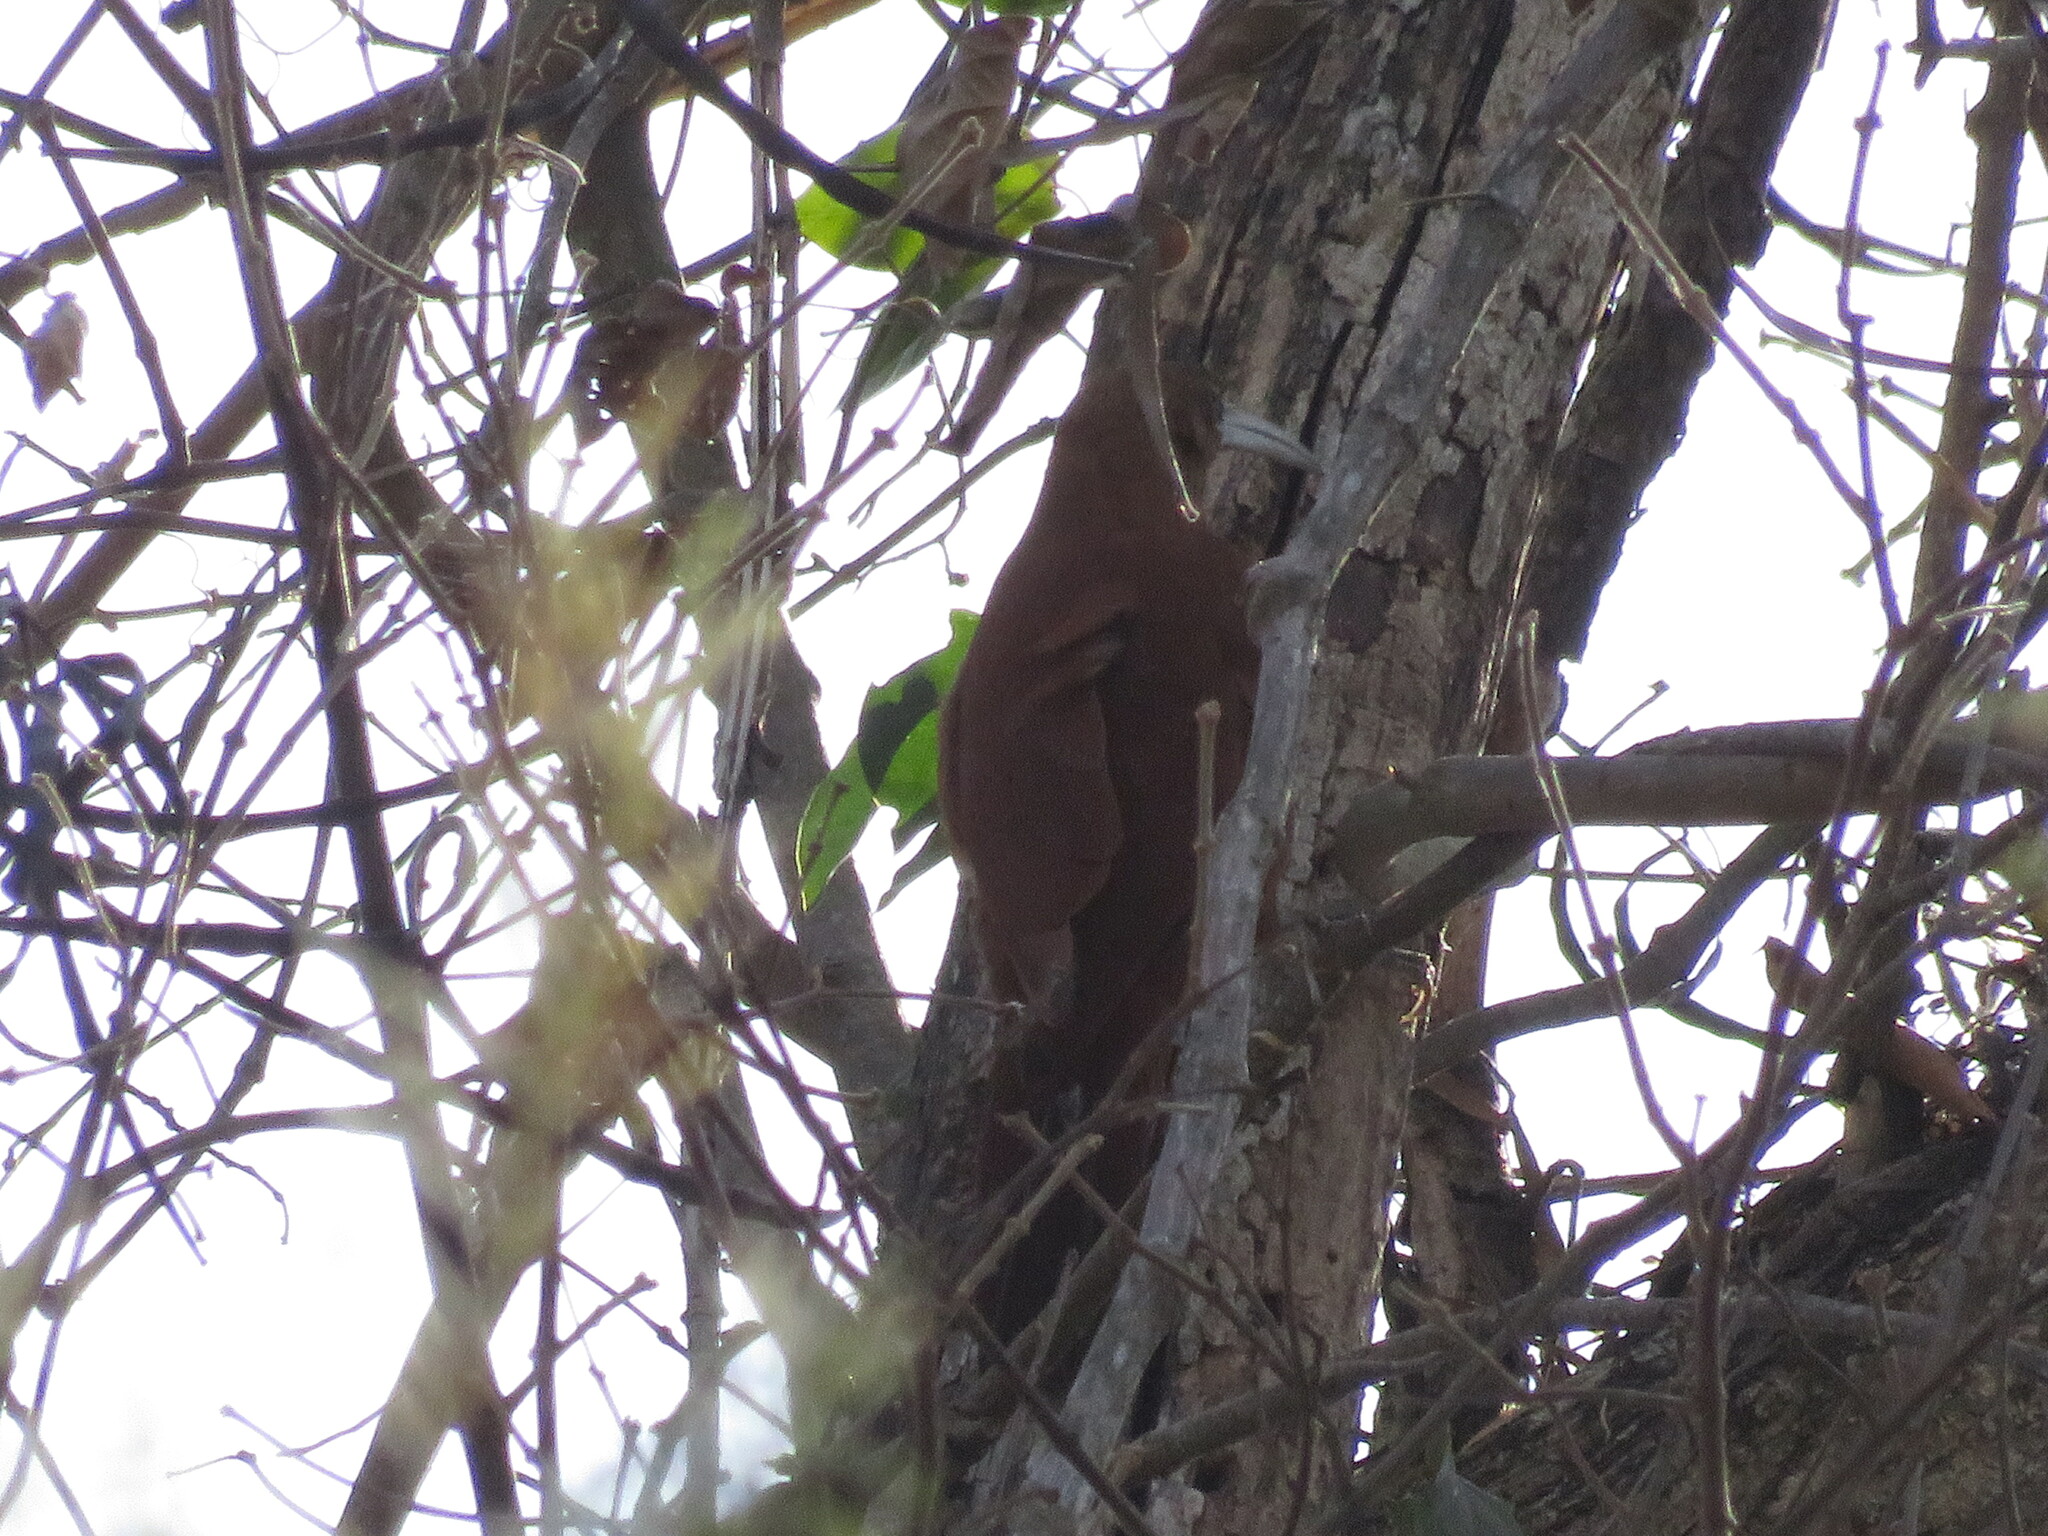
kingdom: Animalia
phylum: Chordata
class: Aves
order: Passeriformes
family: Furnariidae
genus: Xiphocolaptes
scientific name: Xiphocolaptes major
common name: Great rufous woodcreeper
